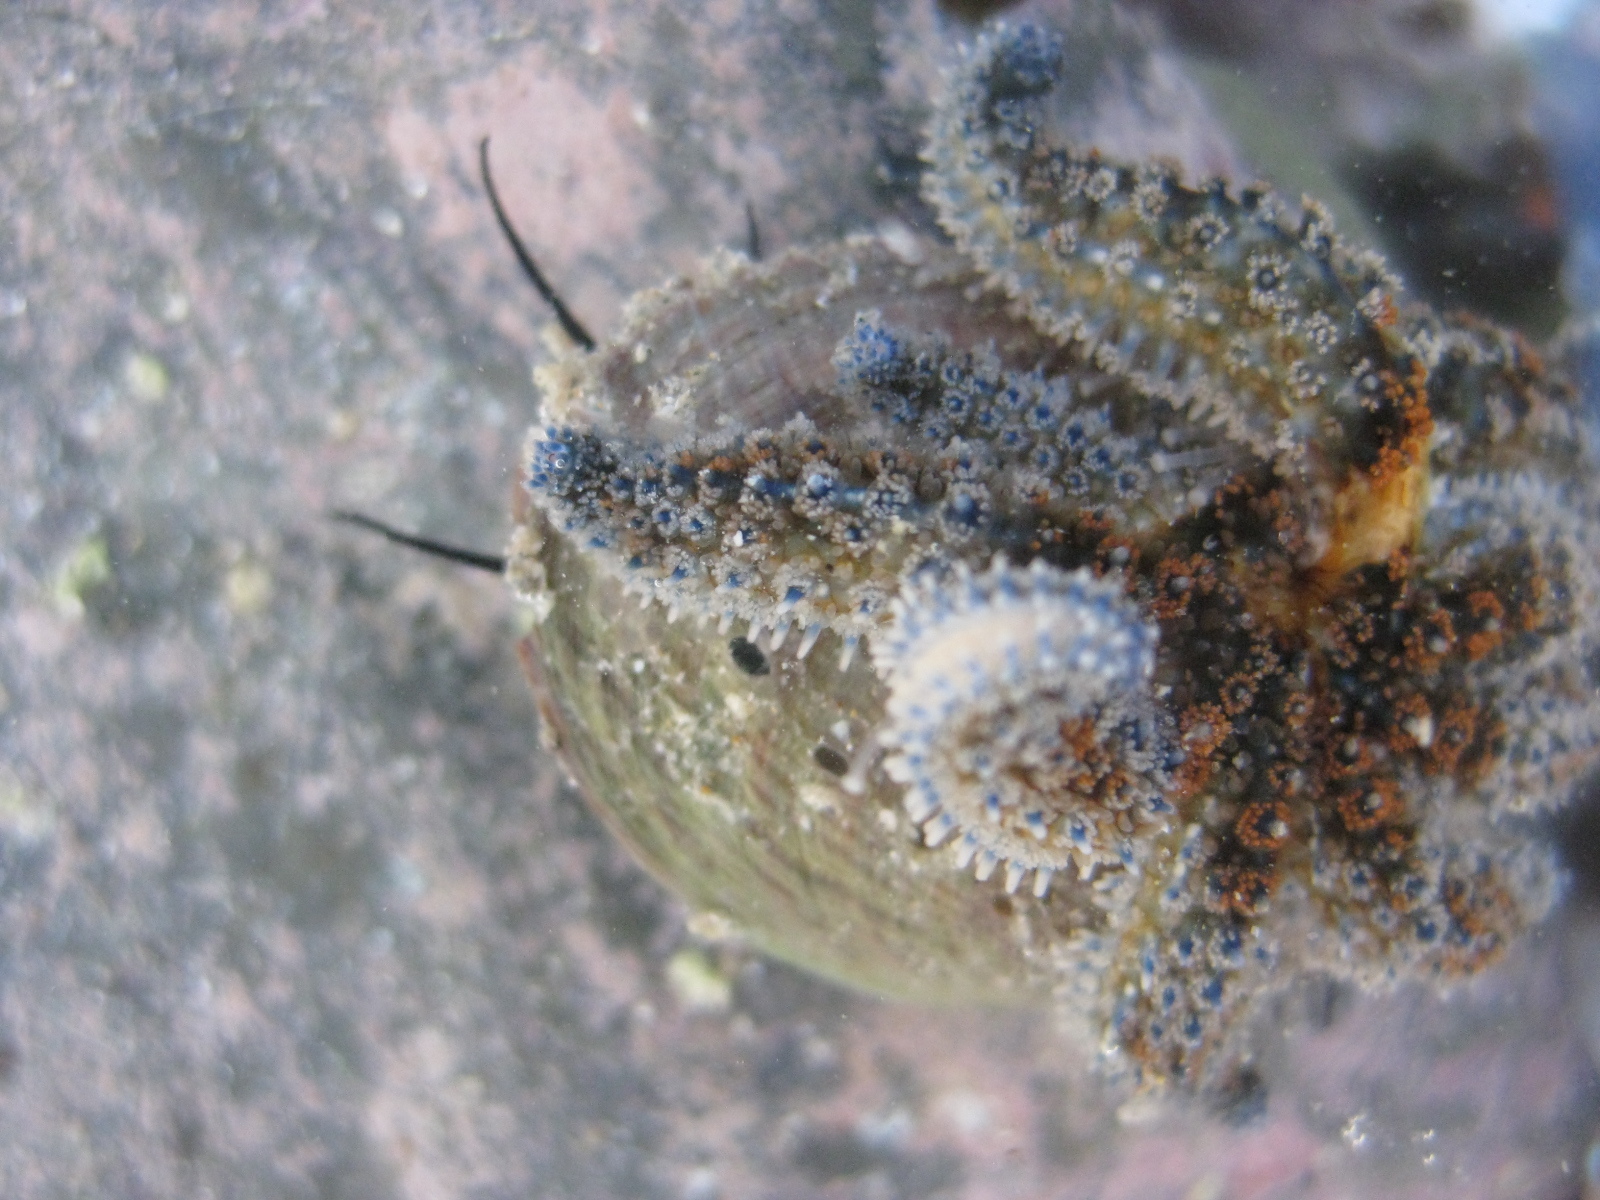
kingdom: Animalia
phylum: Echinodermata
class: Asteroidea
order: Forcipulatida
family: Asteriidae
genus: Coscinasterias
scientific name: Coscinasterias muricata
